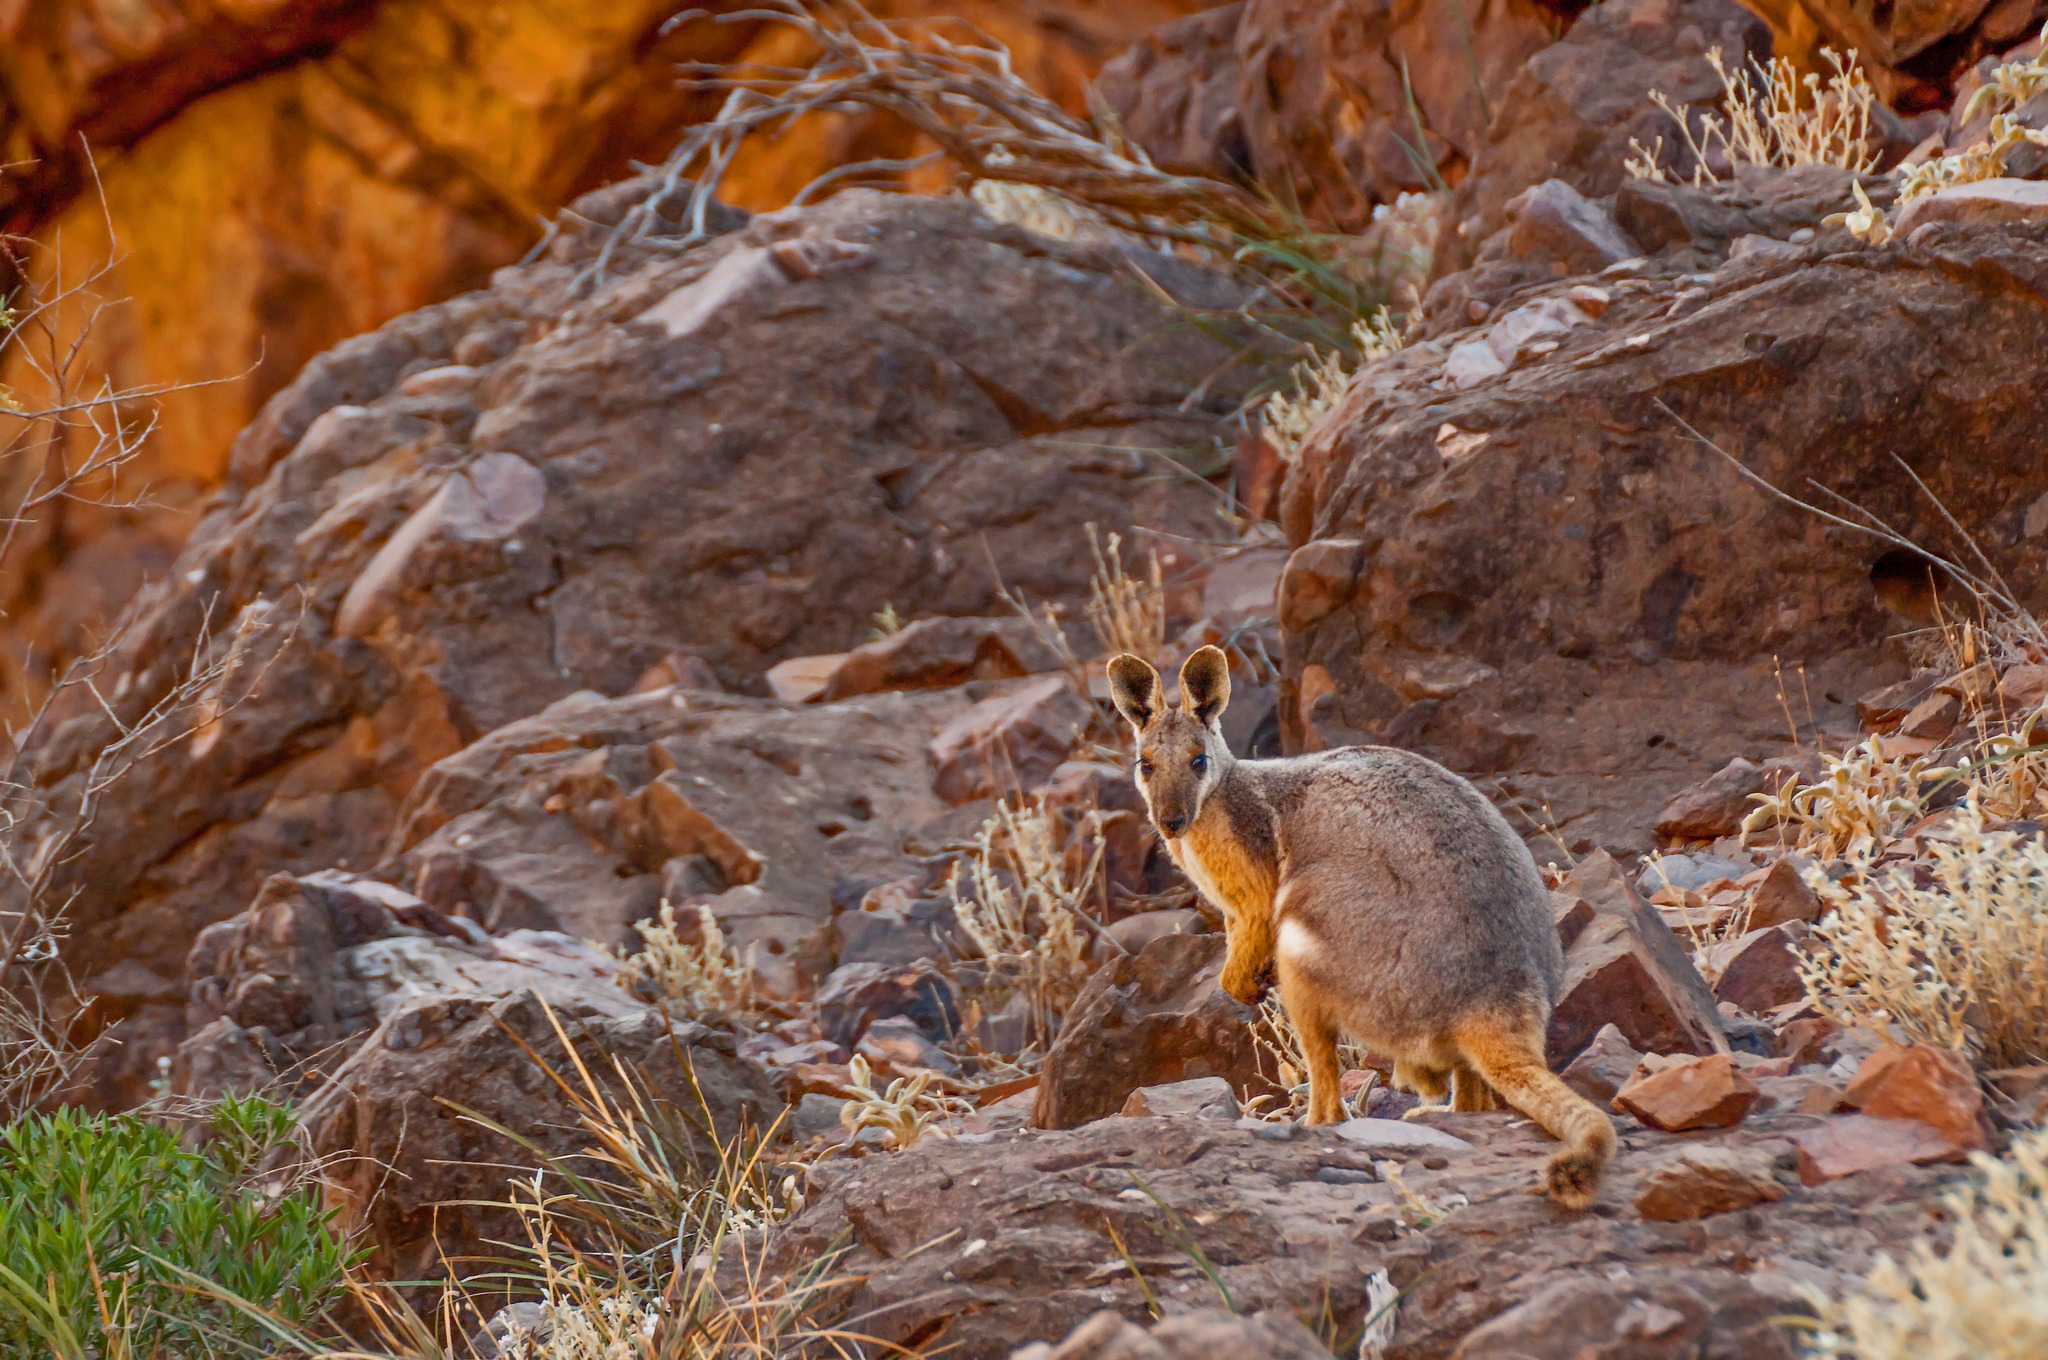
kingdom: Animalia
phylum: Chordata
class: Mammalia
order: Diprotodontia
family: Macropodidae
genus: Petrogale
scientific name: Petrogale xanthopus
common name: Yellow-footed rock-wallaby
